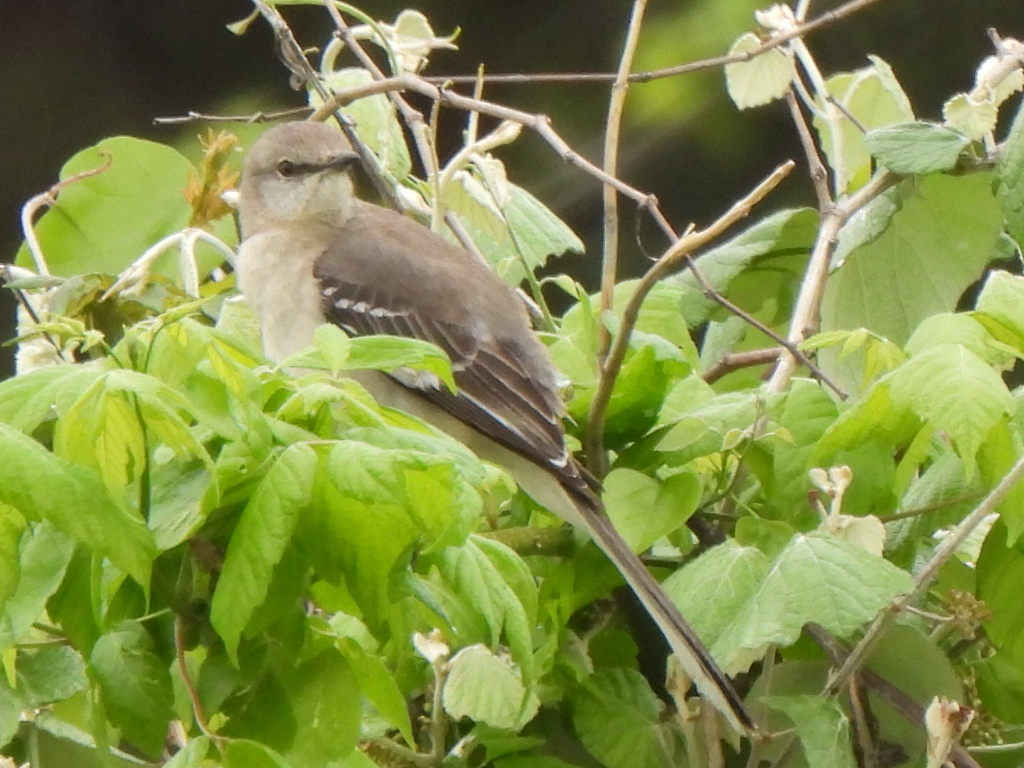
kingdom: Animalia
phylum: Chordata
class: Aves
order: Passeriformes
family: Mimidae
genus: Mimus
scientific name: Mimus polyglottos
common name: Northern mockingbird
